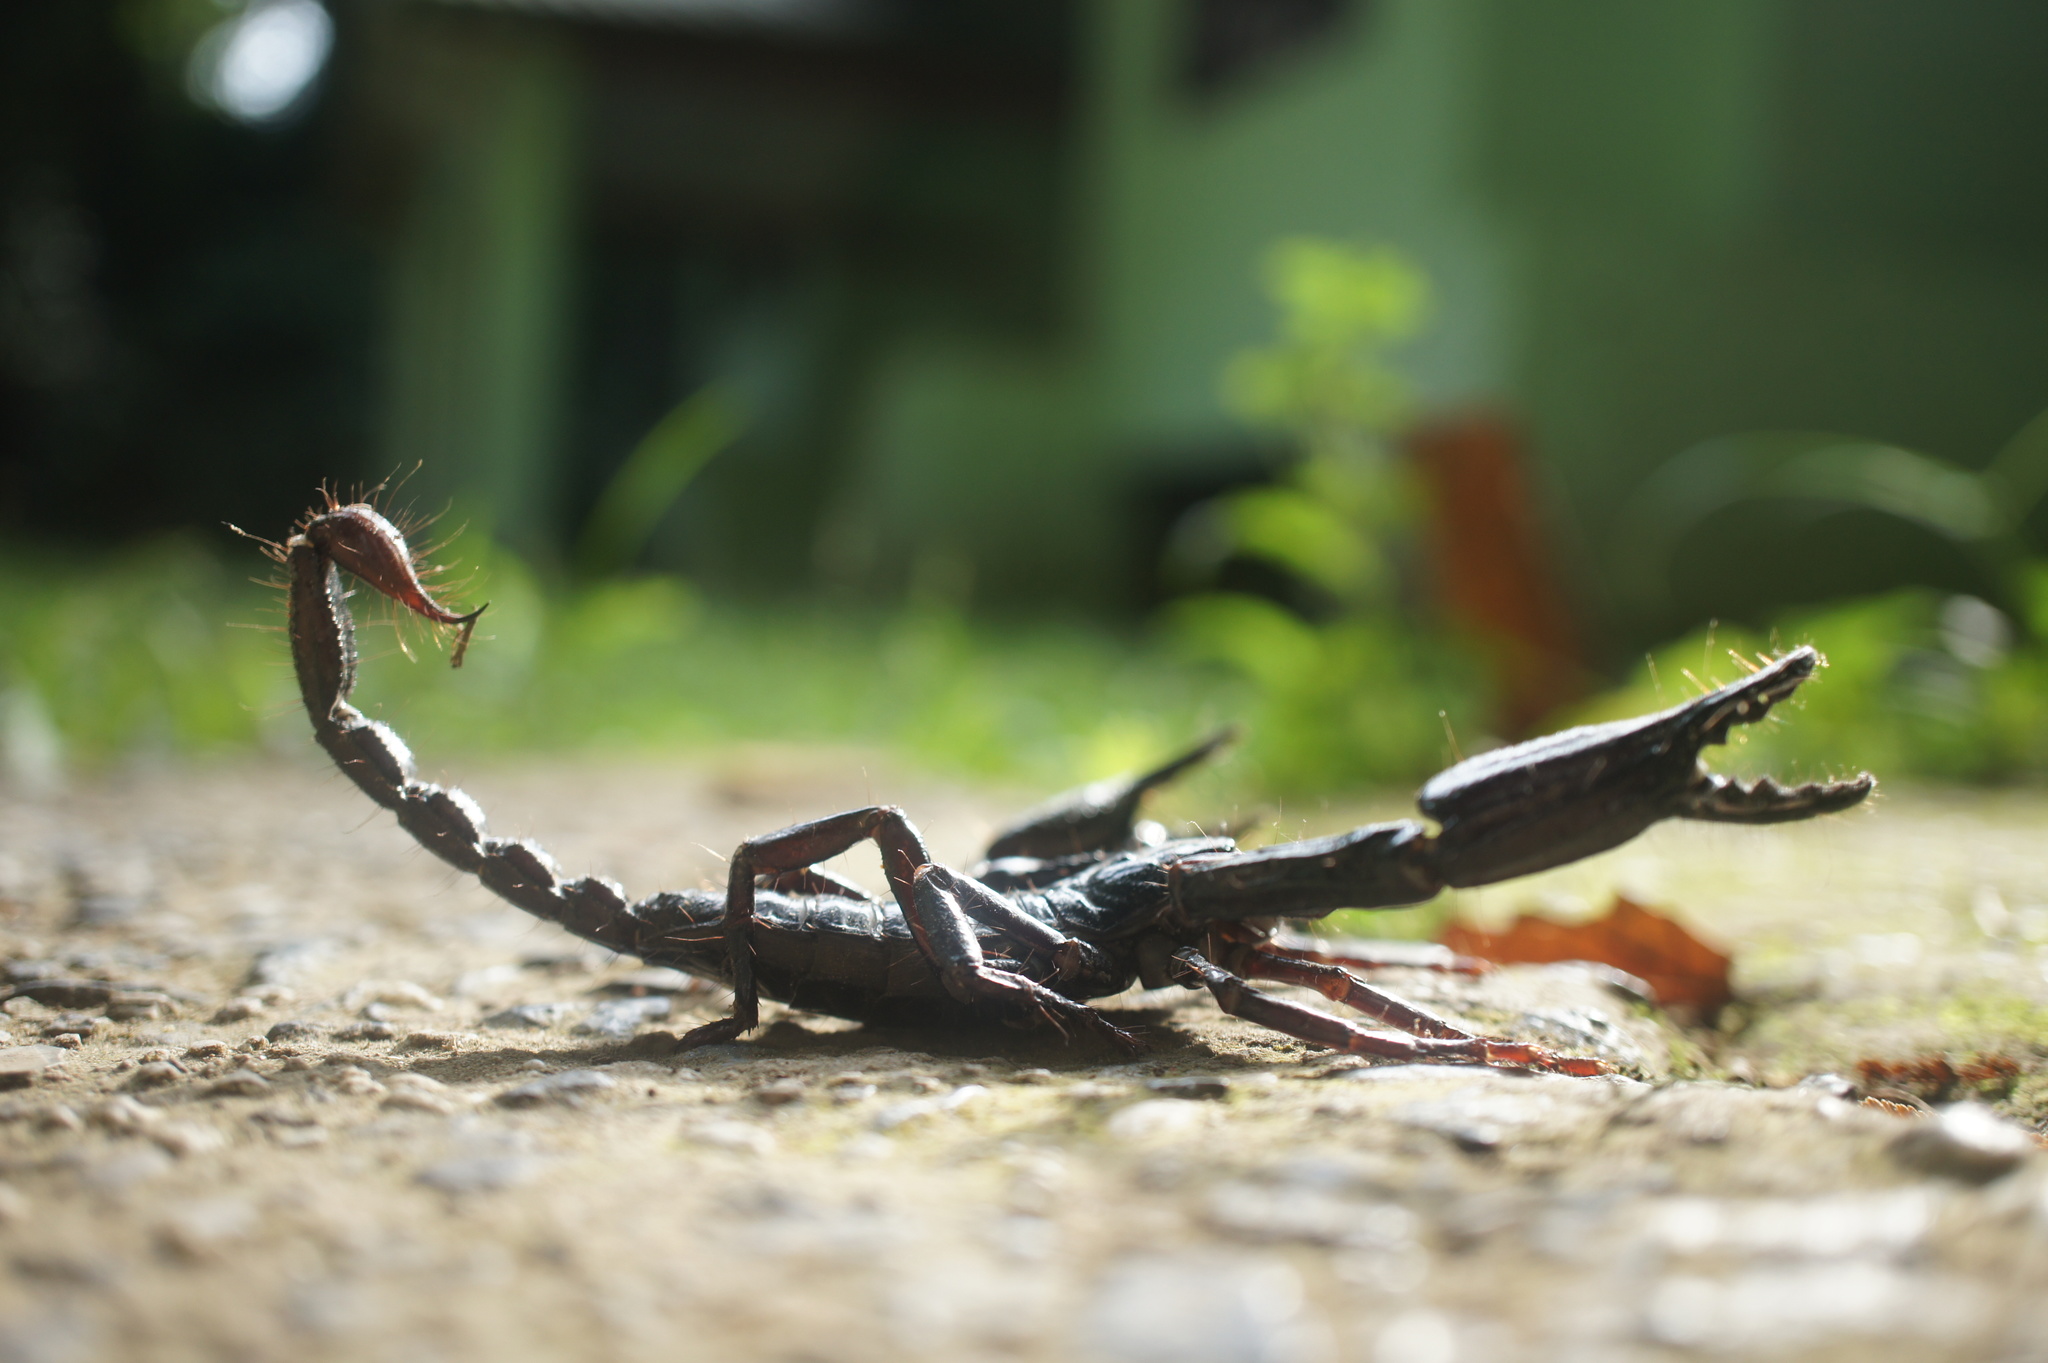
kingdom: Animalia
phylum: Arthropoda
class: Arachnida
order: Scorpiones
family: Scorpionidae
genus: Heterometrus
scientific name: Heterometrus longimanus
